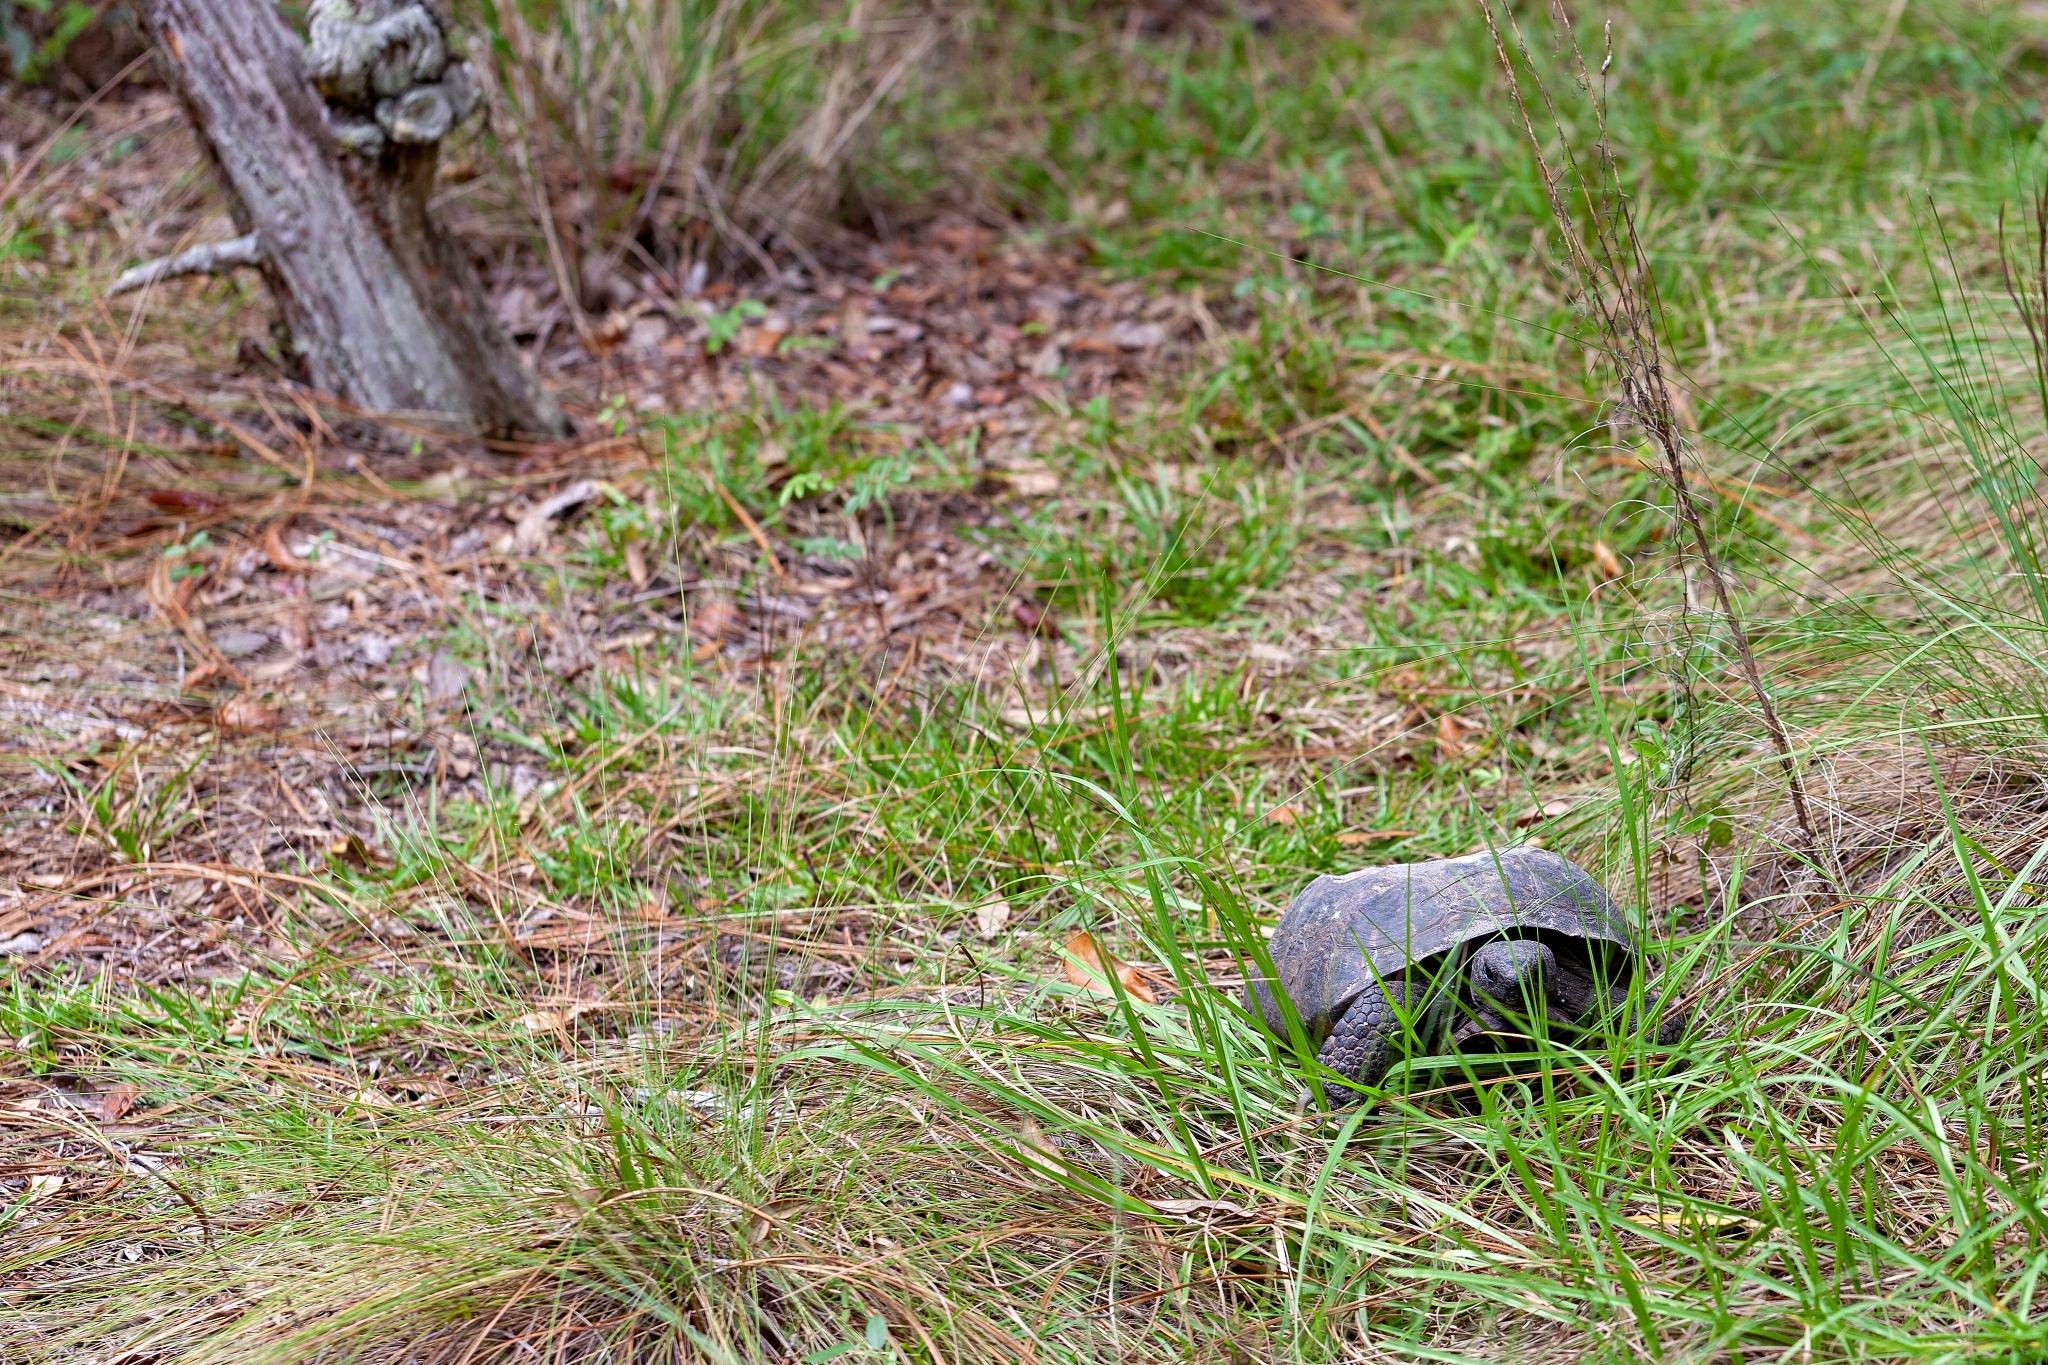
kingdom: Animalia
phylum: Chordata
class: Testudines
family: Testudinidae
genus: Gopherus
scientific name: Gopherus polyphemus
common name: Florida gopher tortoise
